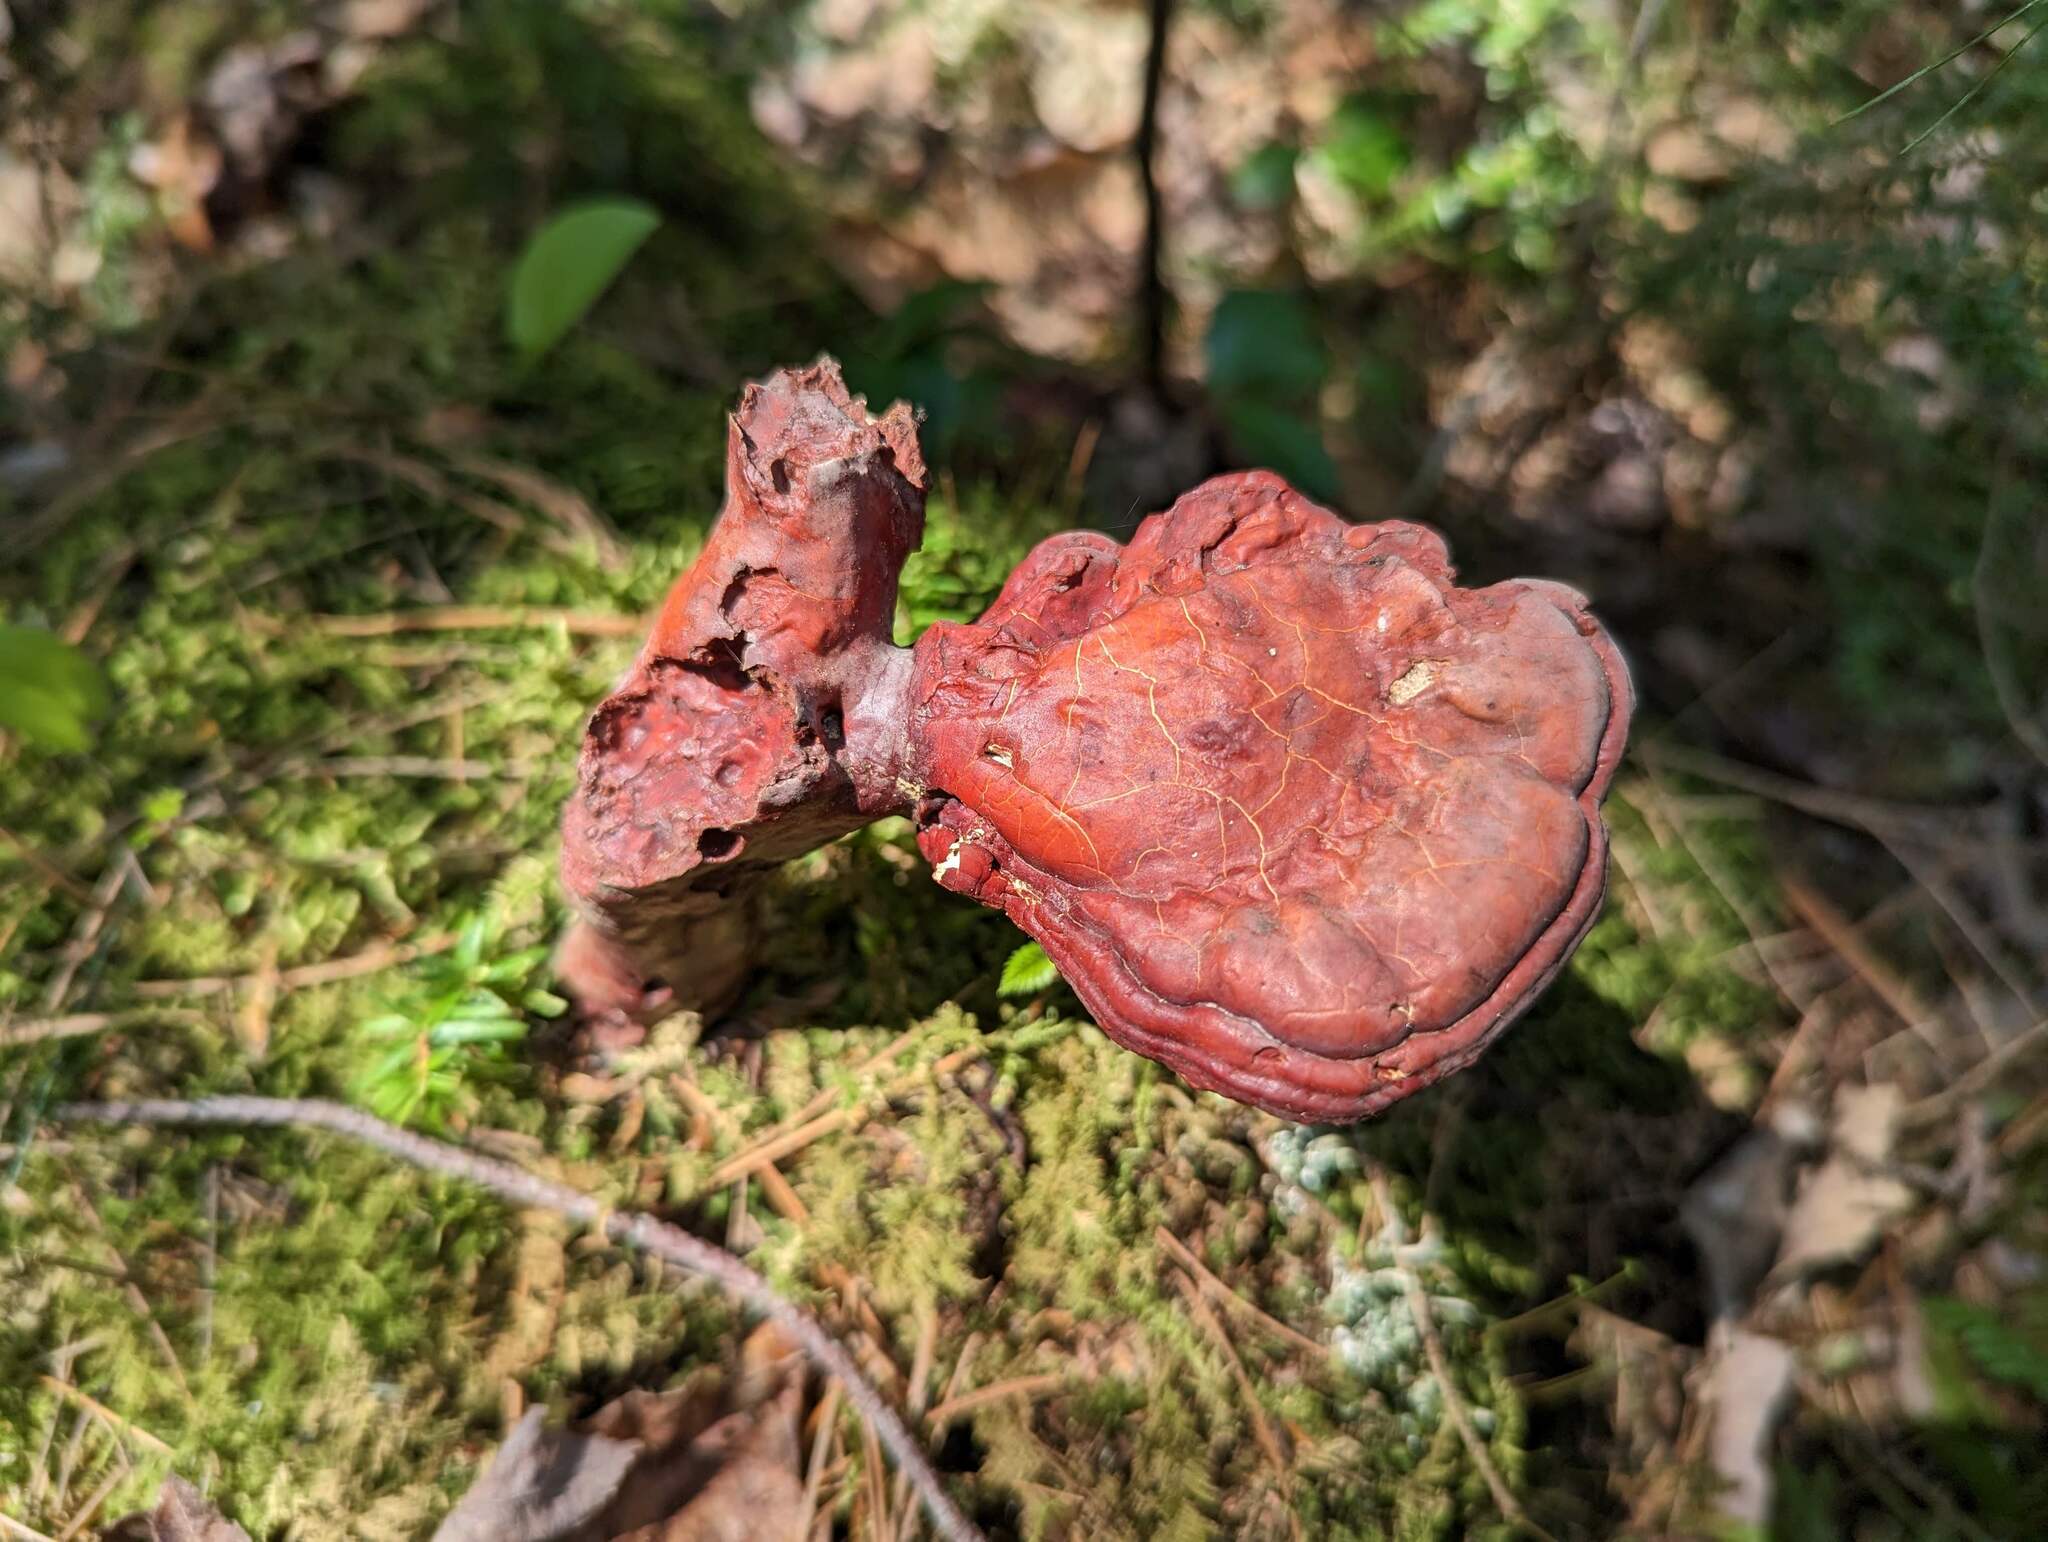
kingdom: Fungi
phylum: Basidiomycota
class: Agaricomycetes
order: Polyporales
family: Polyporaceae
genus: Ganoderma
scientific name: Ganoderma tsugae
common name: Hemlock varnish shelf
